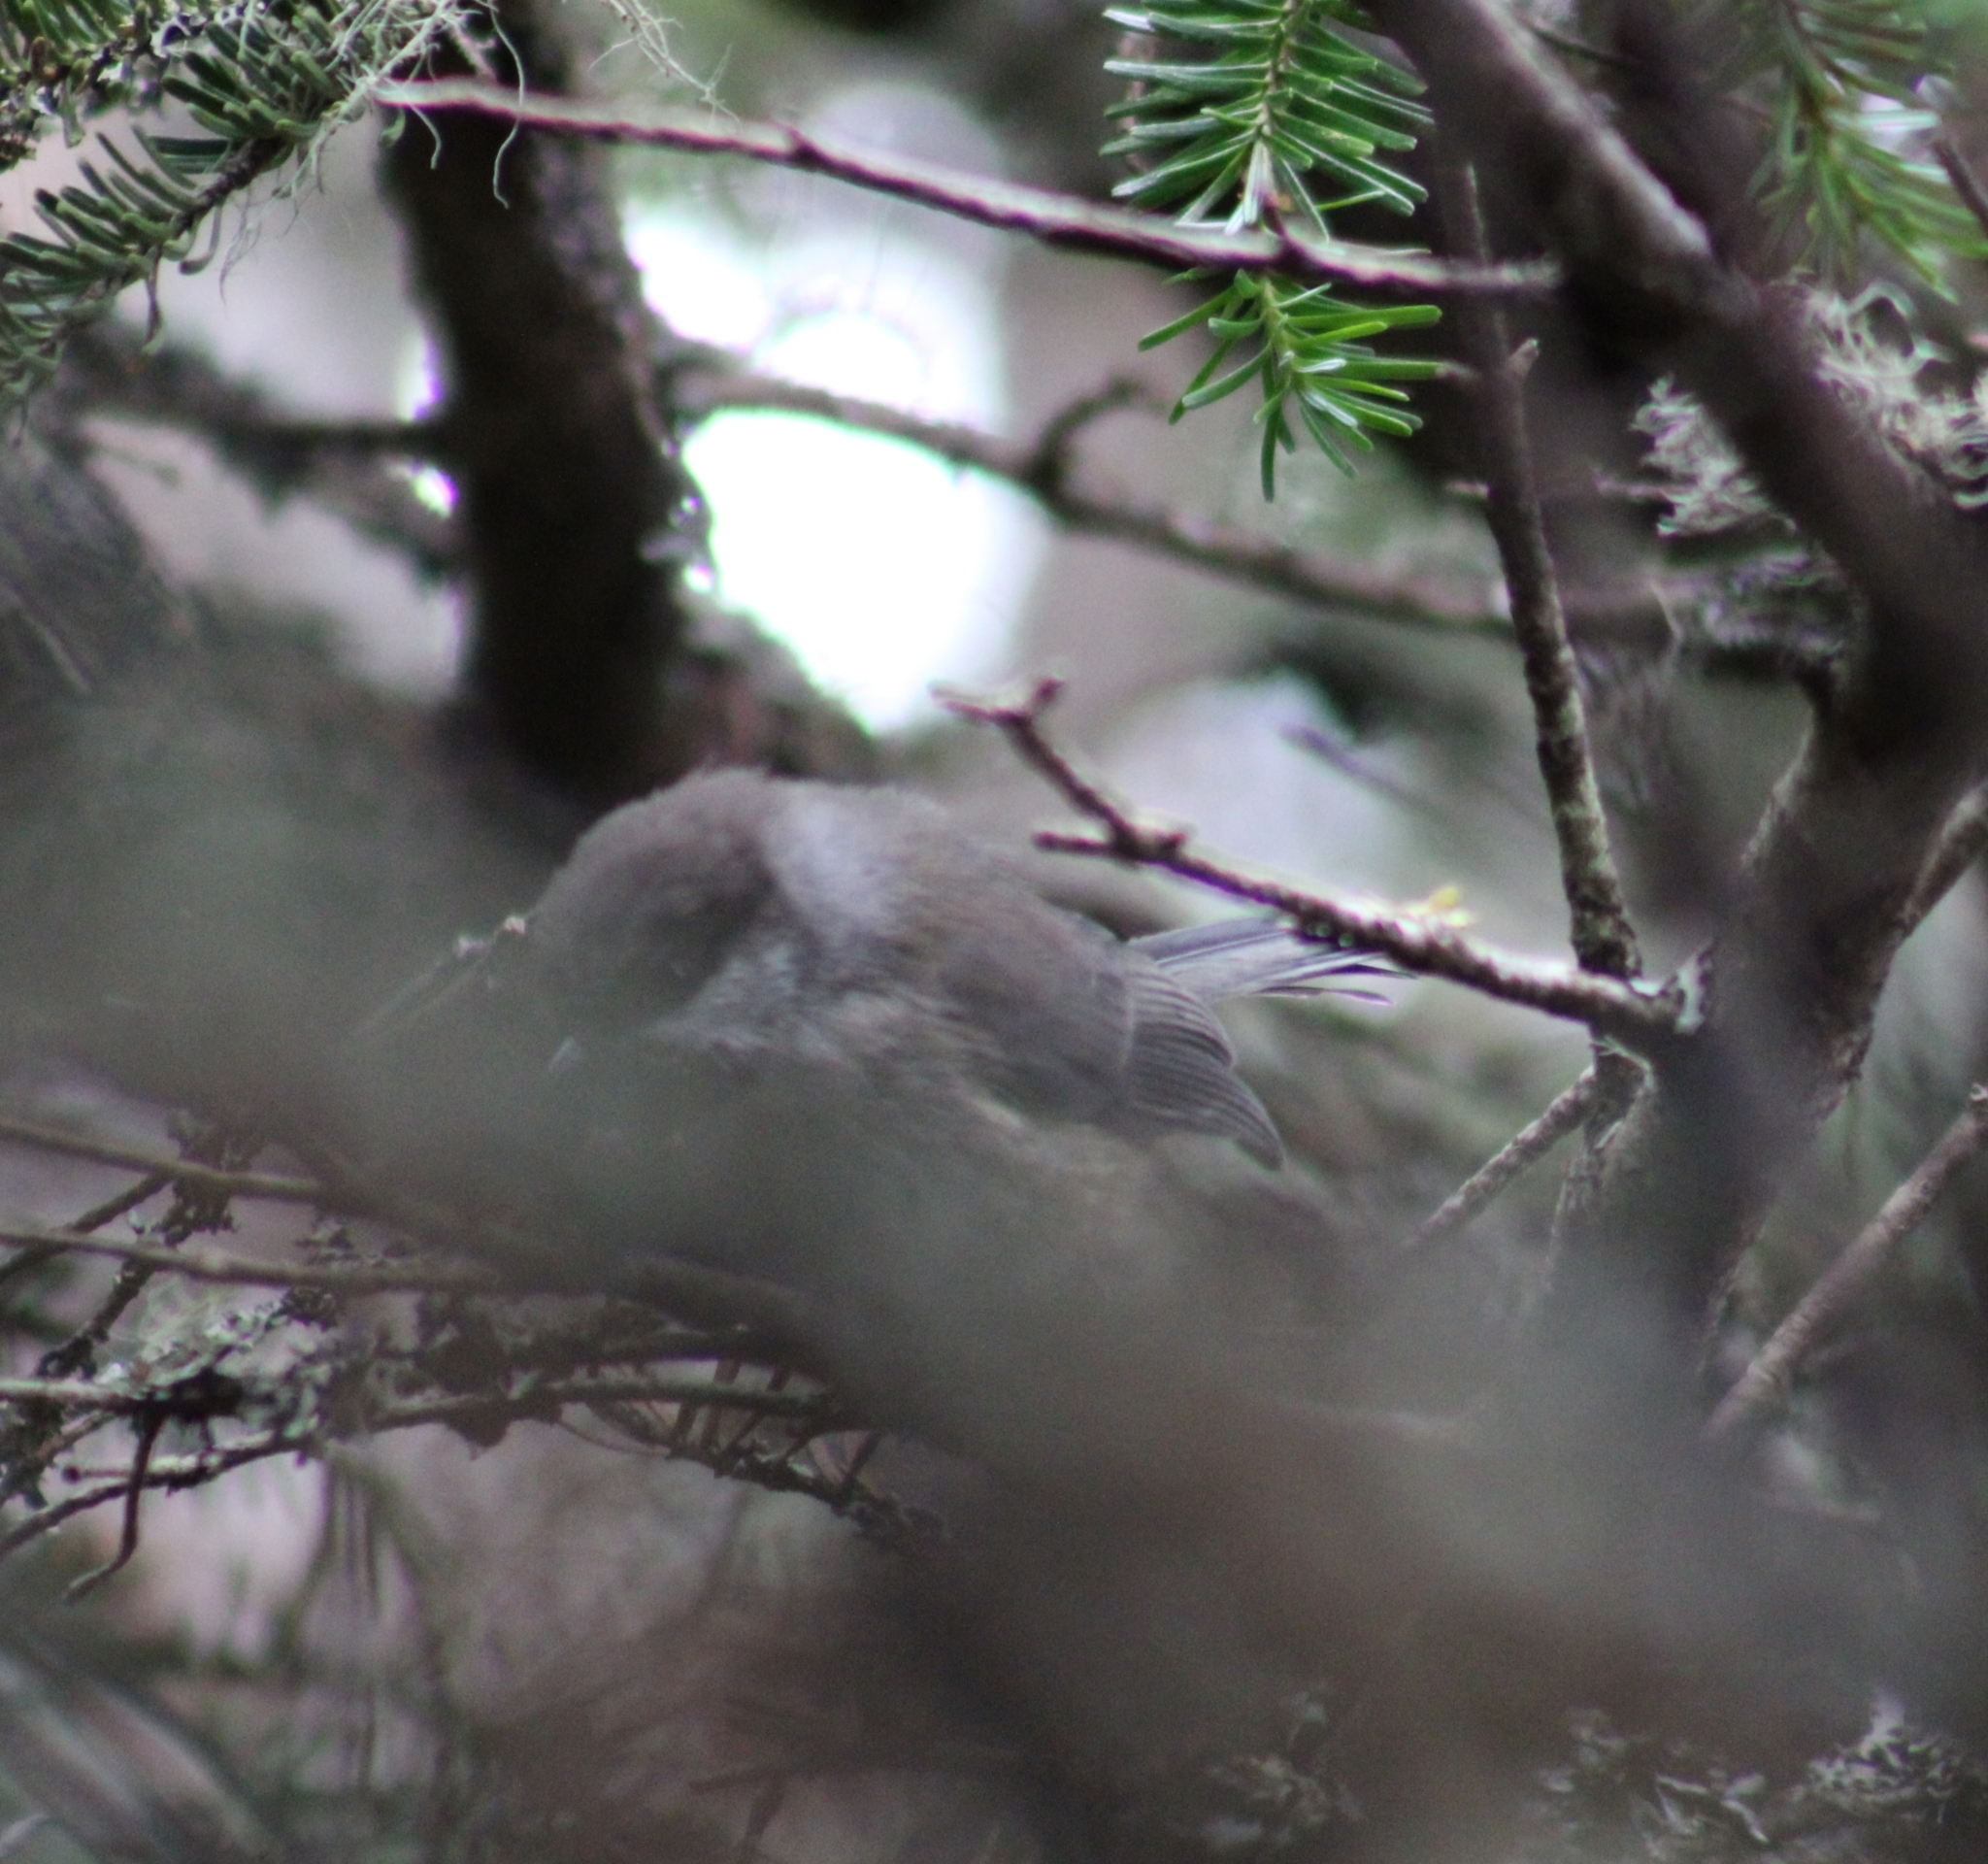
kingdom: Animalia
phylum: Chordata
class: Aves
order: Passeriformes
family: Paridae
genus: Poecile
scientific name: Poecile hudsonicus
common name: Boreal chickadee
